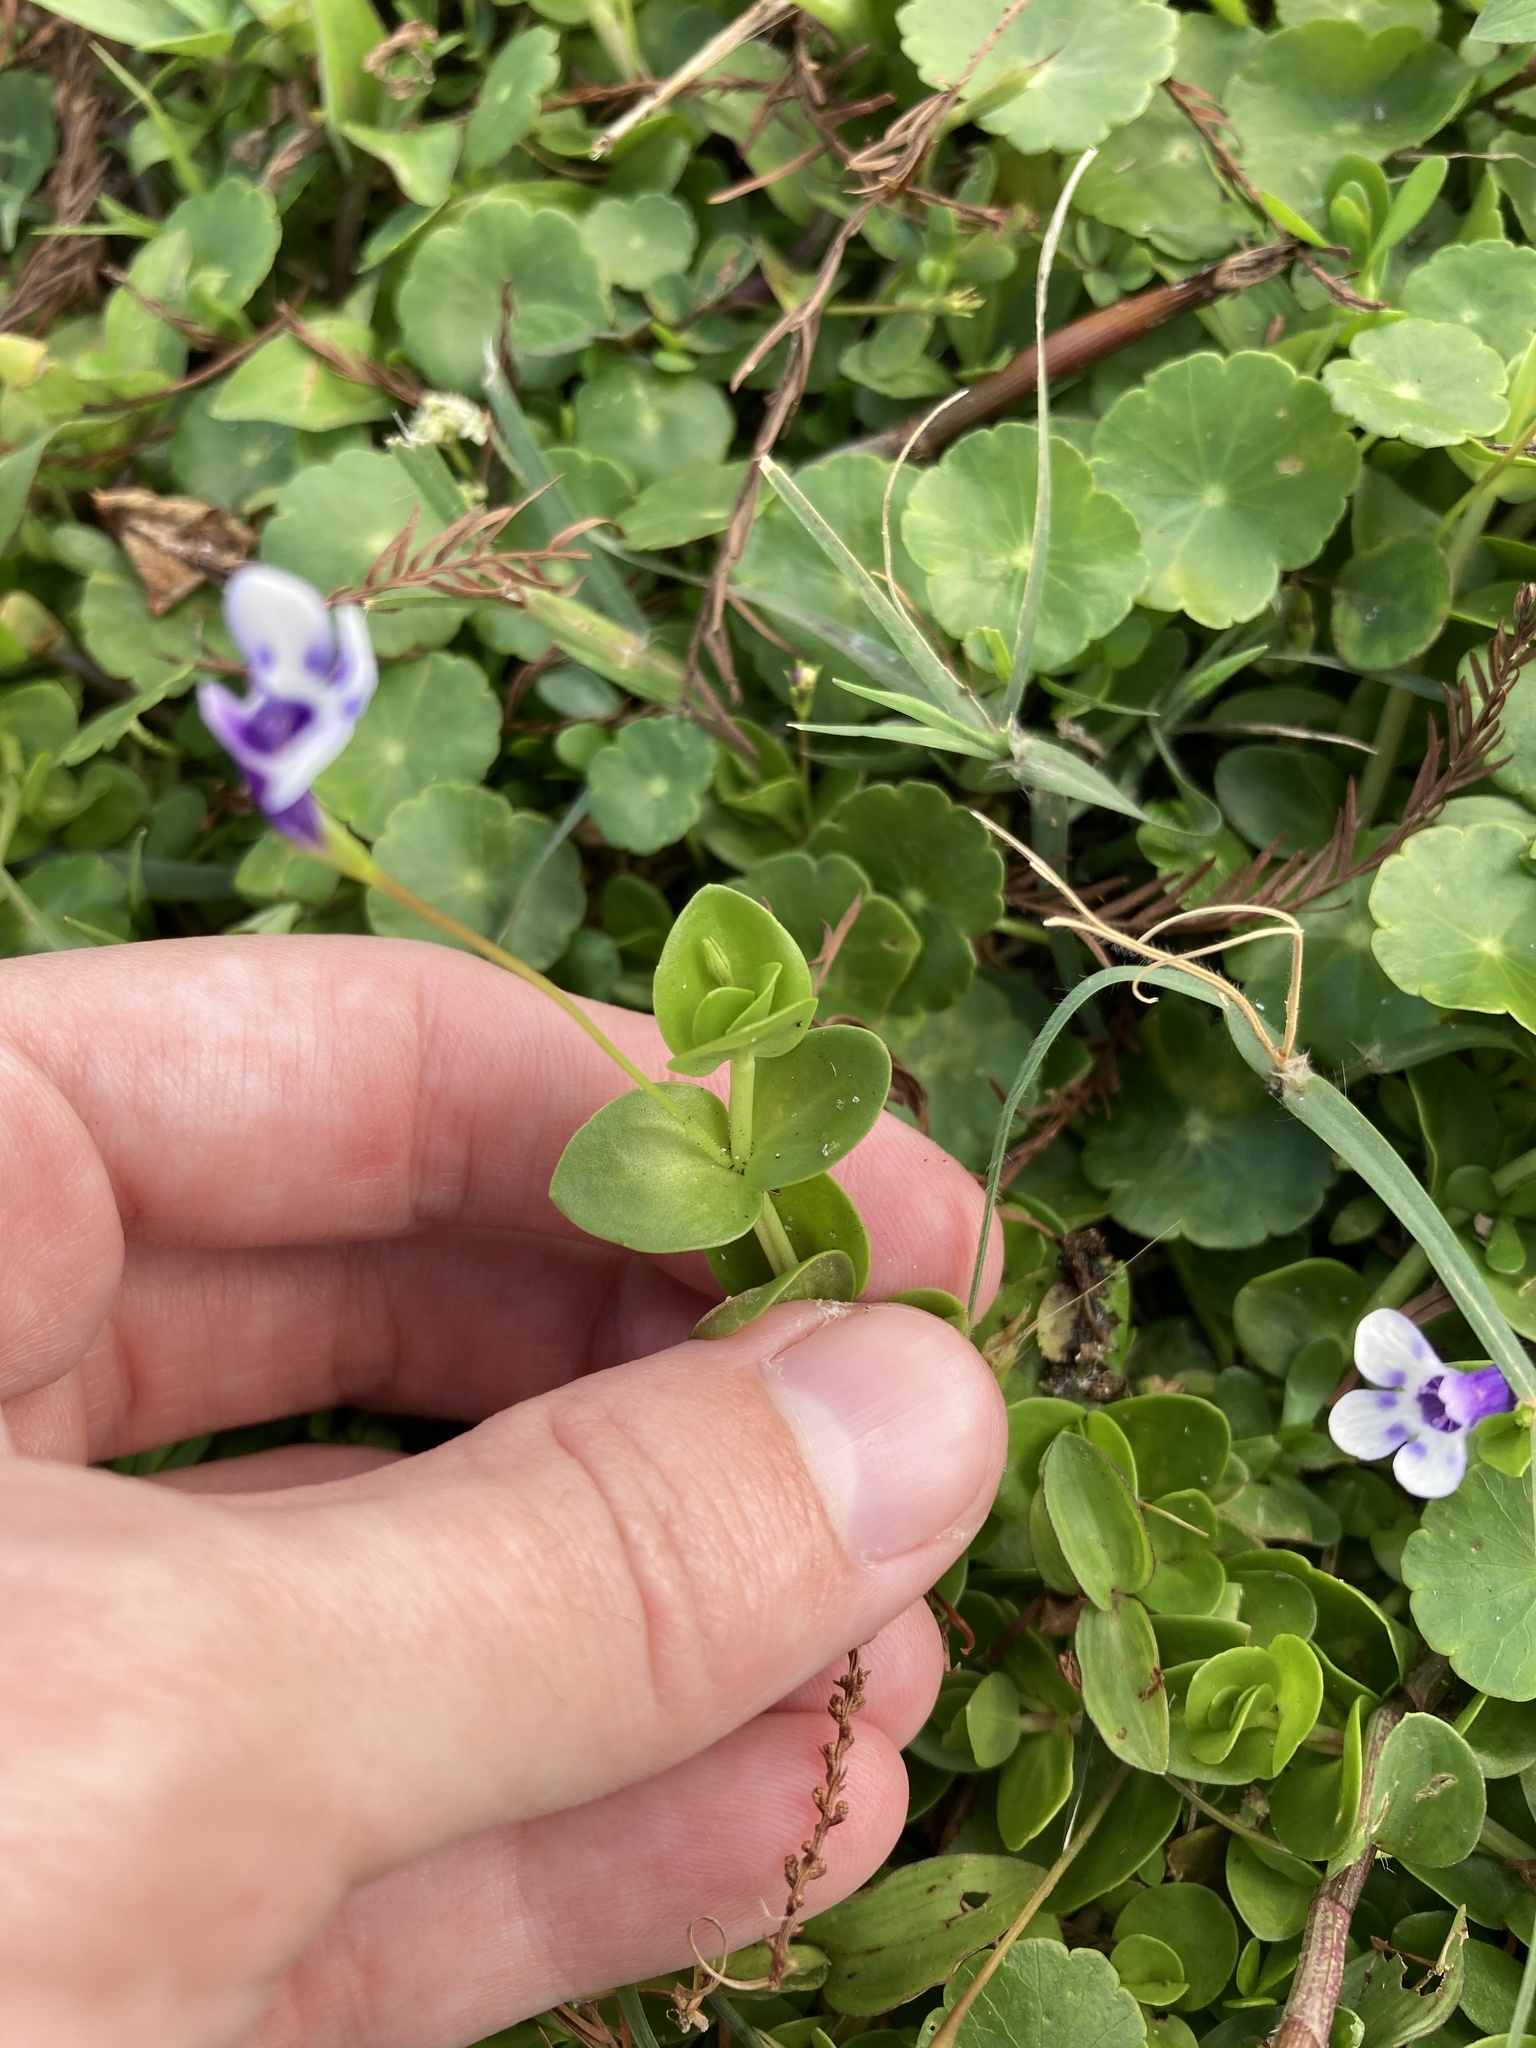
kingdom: Plantae
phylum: Tracheophyta
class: Magnoliopsida
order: Lamiales
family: Linderniaceae
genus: Lindernia
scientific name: Lindernia grandiflora
